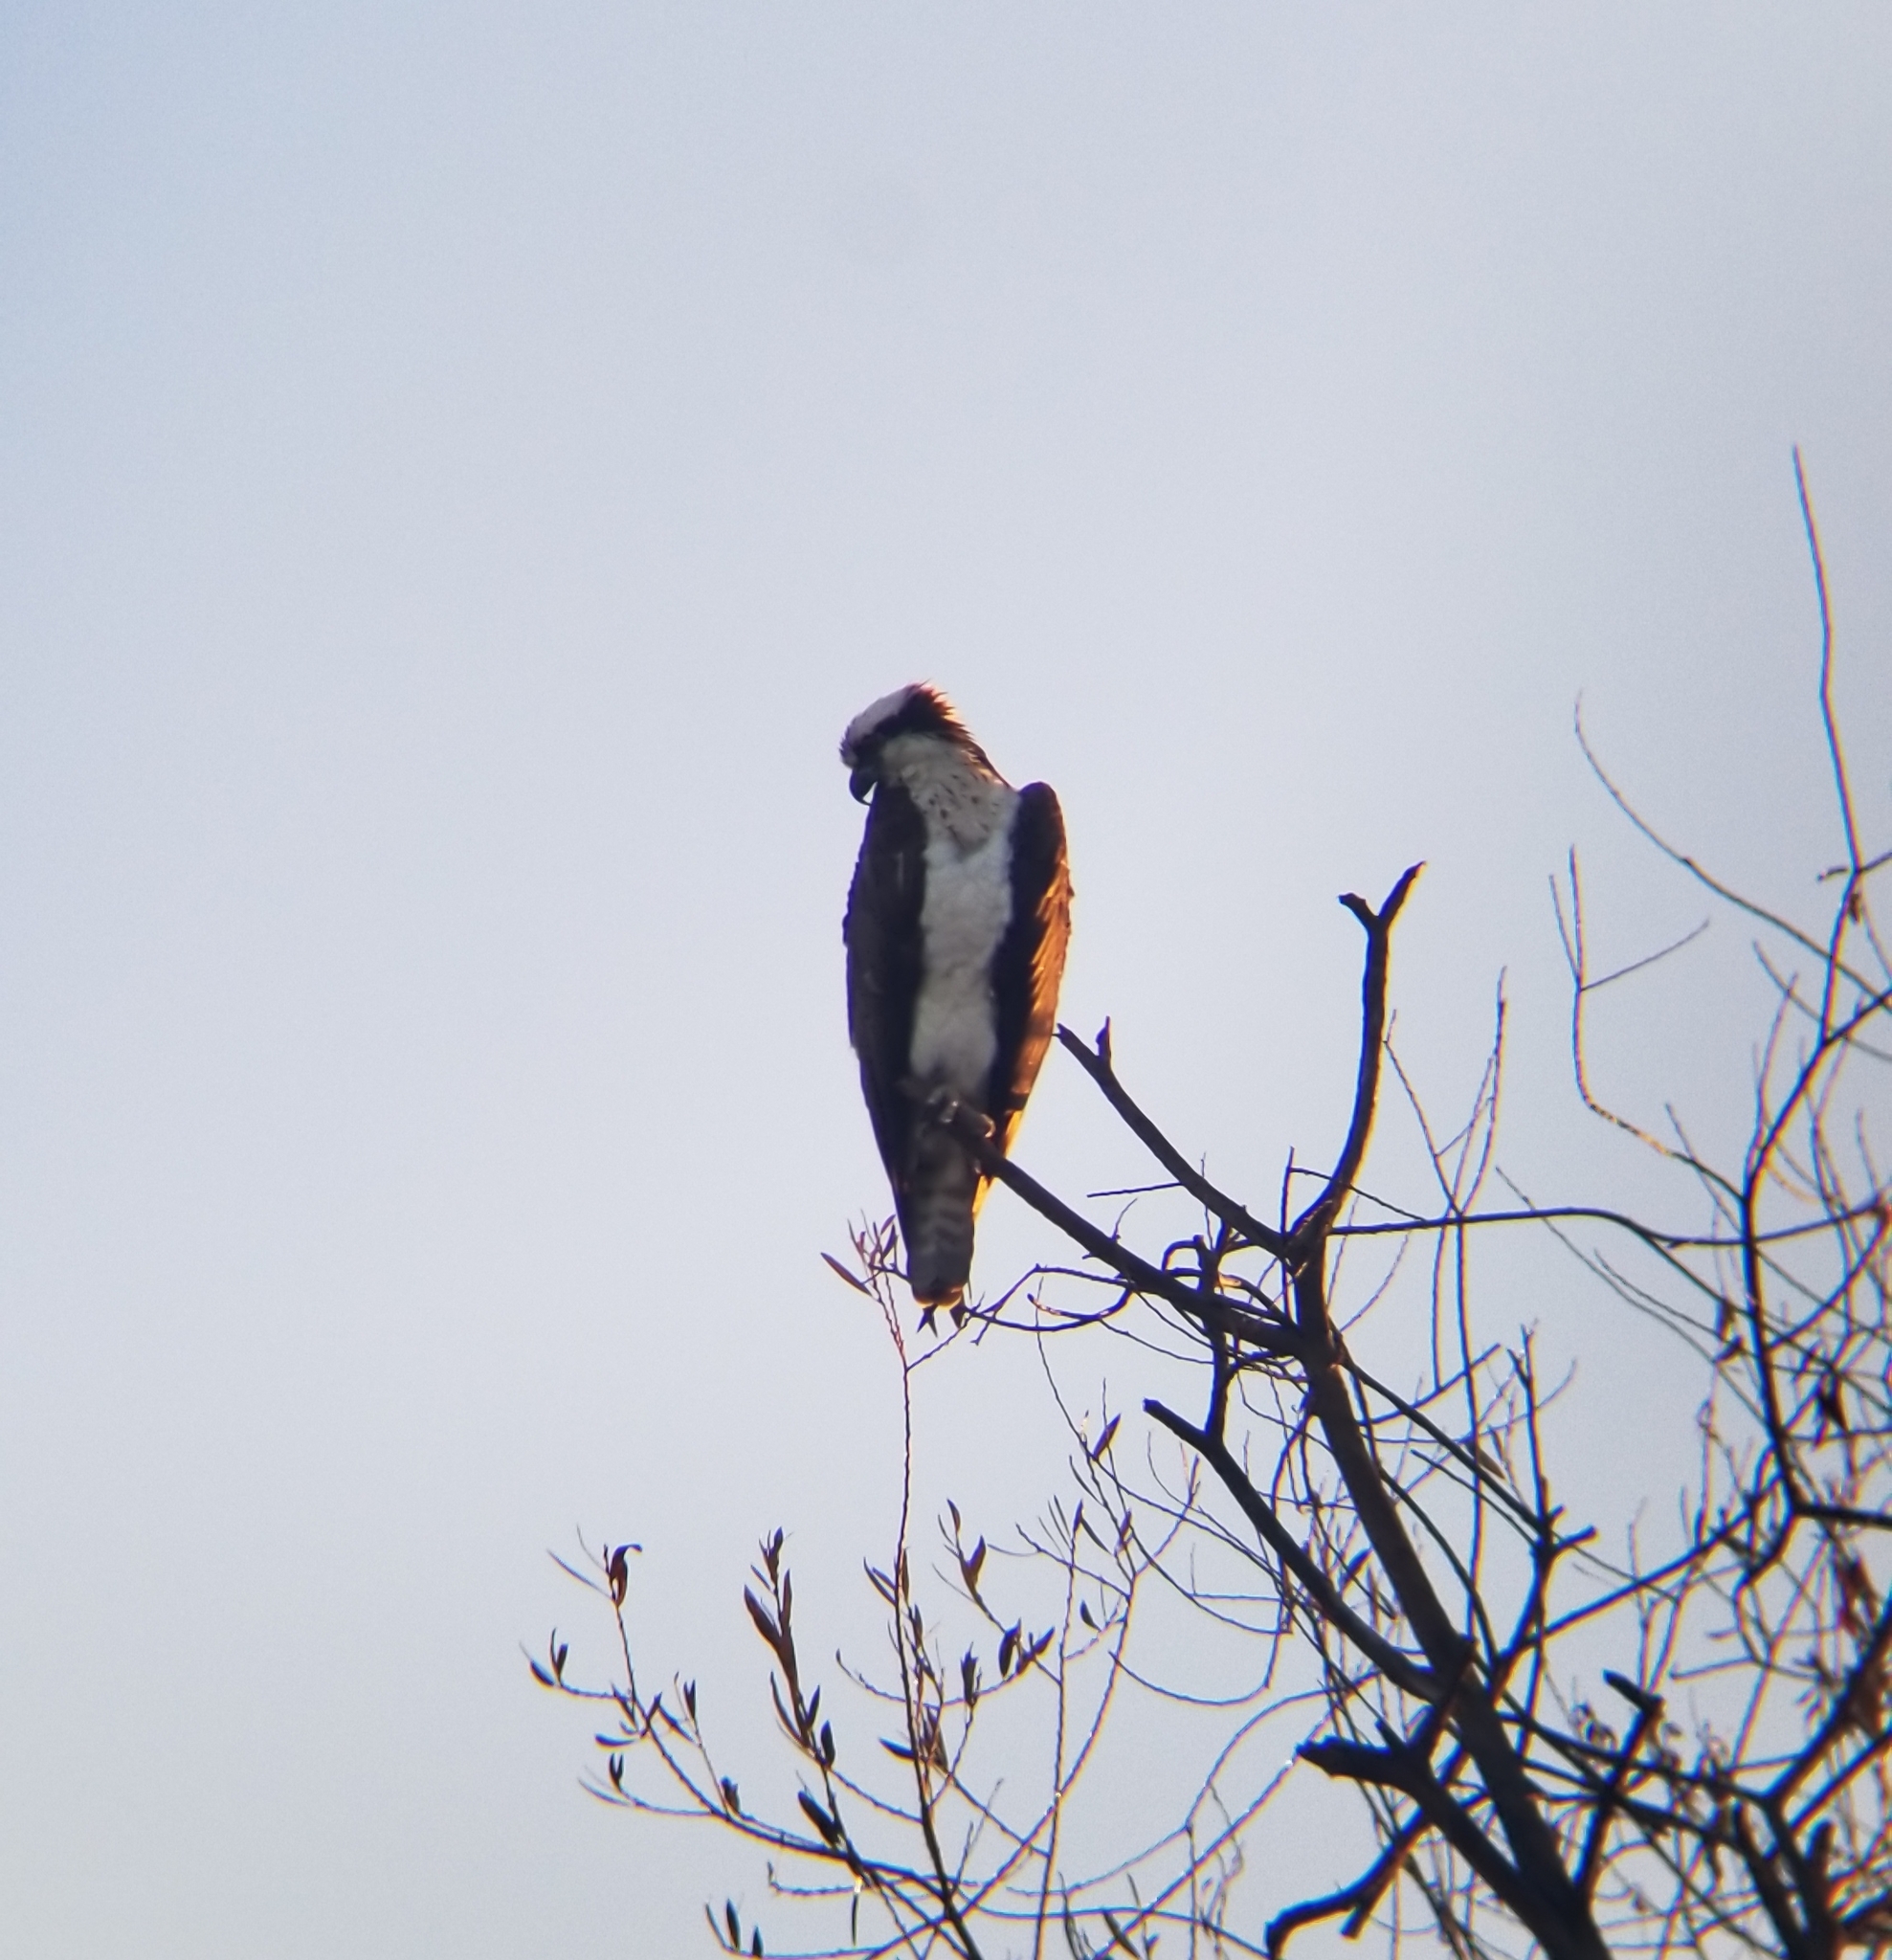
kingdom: Animalia
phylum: Chordata
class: Aves
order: Accipitriformes
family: Pandionidae
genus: Pandion
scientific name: Pandion haliaetus
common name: Osprey
